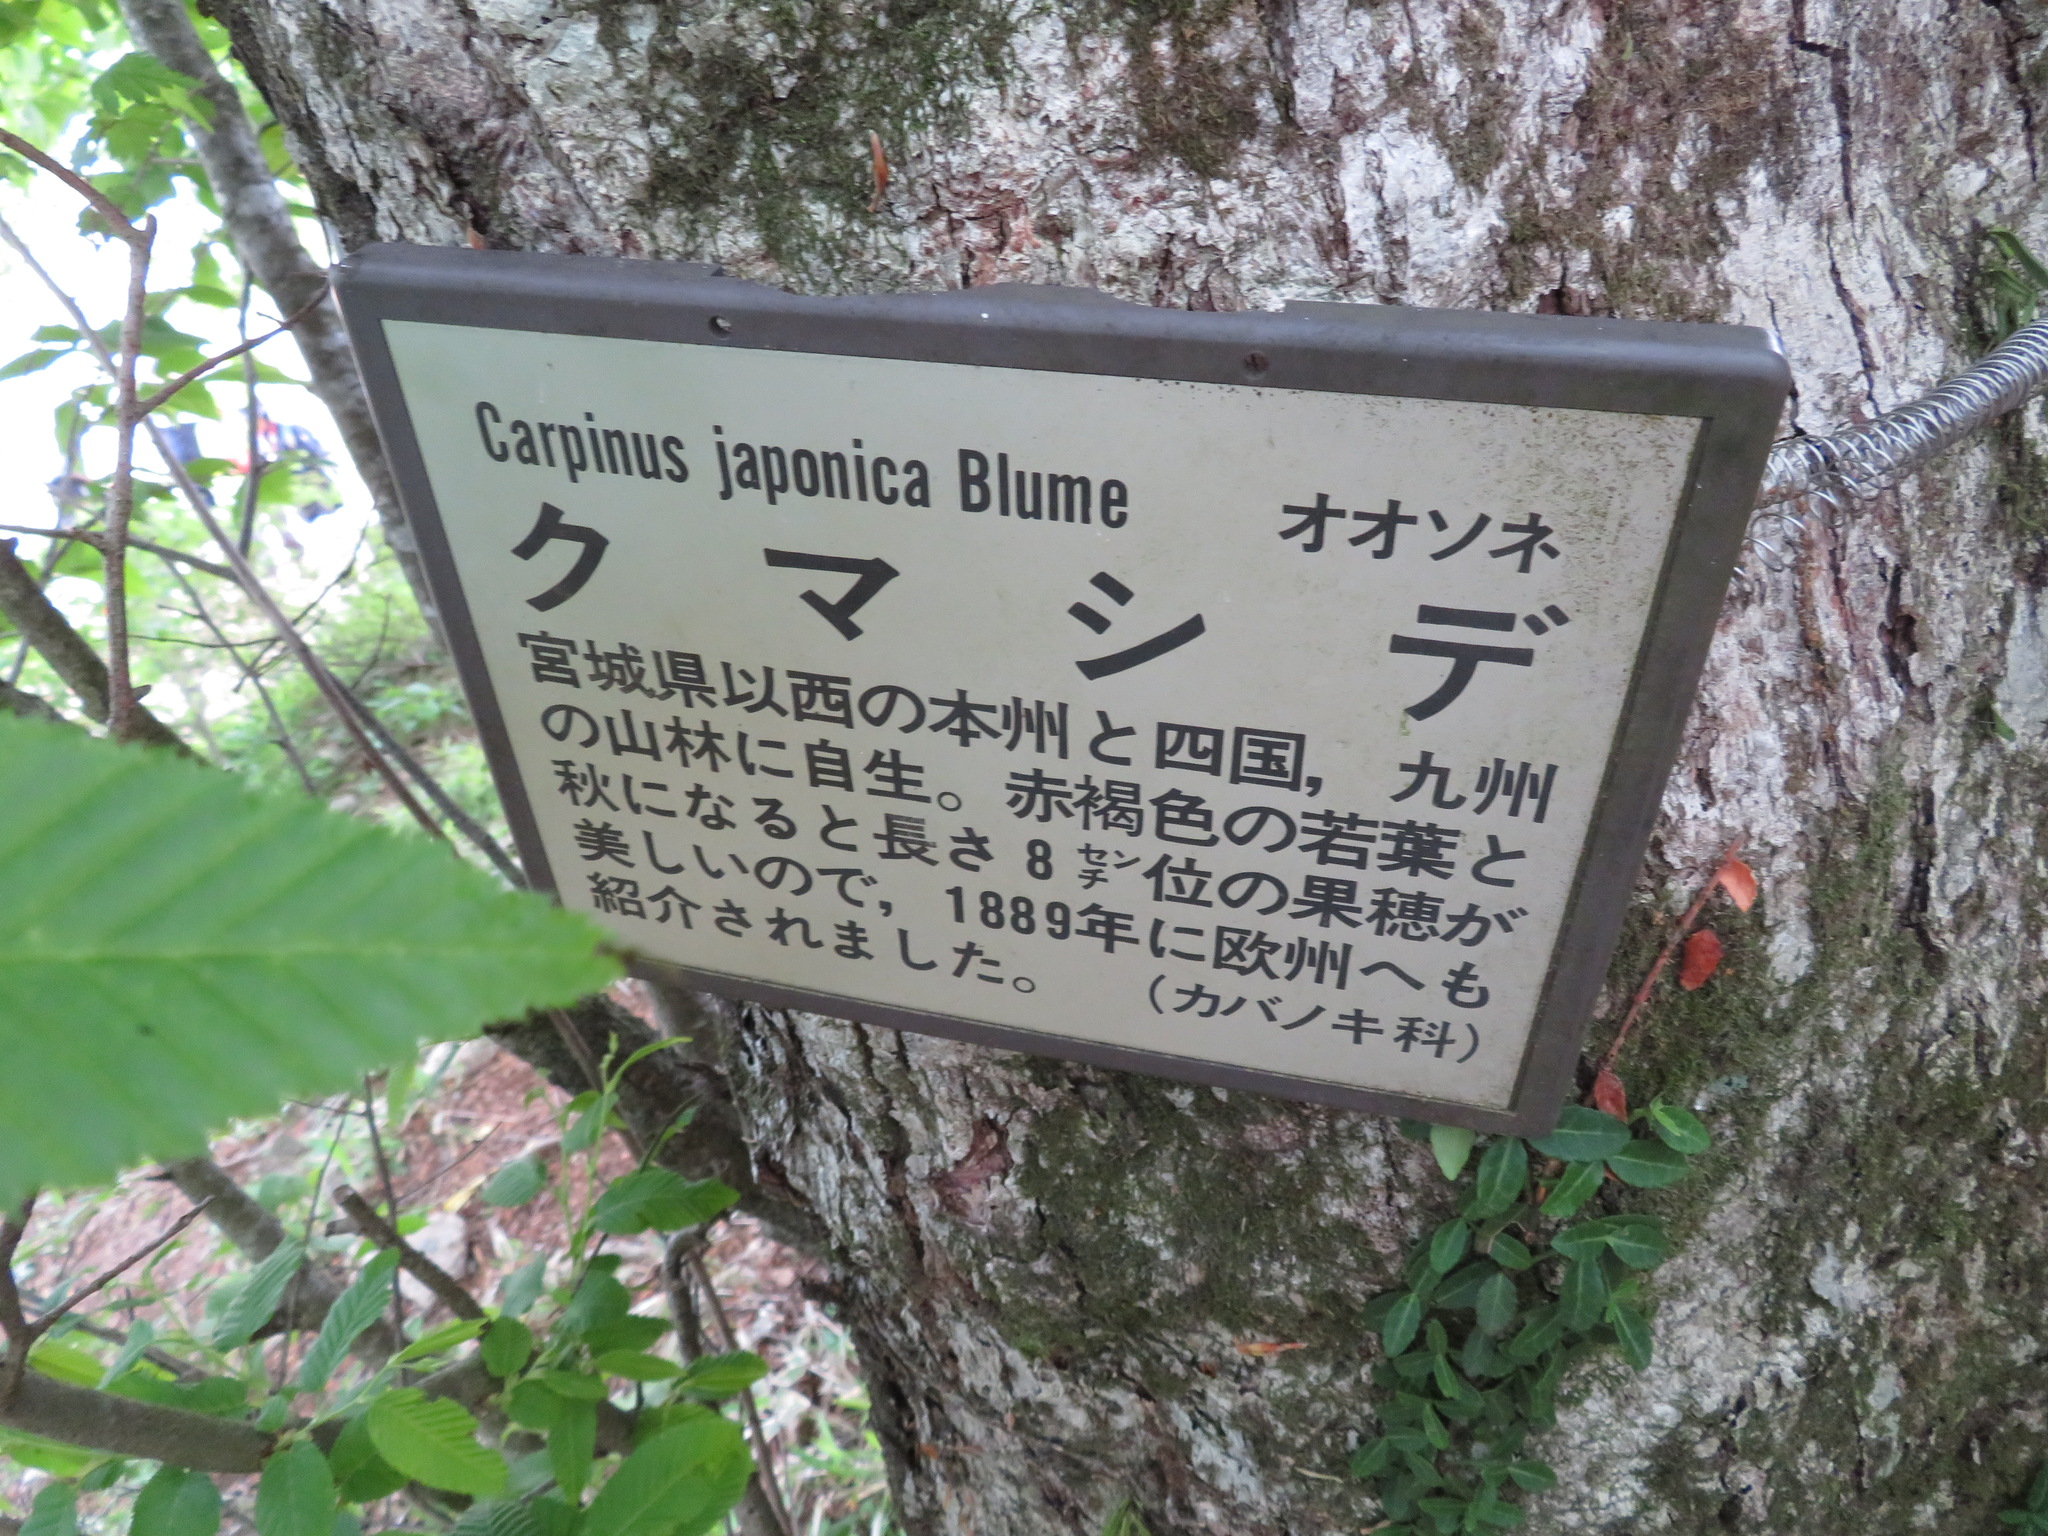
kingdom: Plantae
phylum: Tracheophyta
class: Magnoliopsida
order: Fagales
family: Betulaceae
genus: Carpinus
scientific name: Carpinus japonica
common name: Japanese hornbeam
